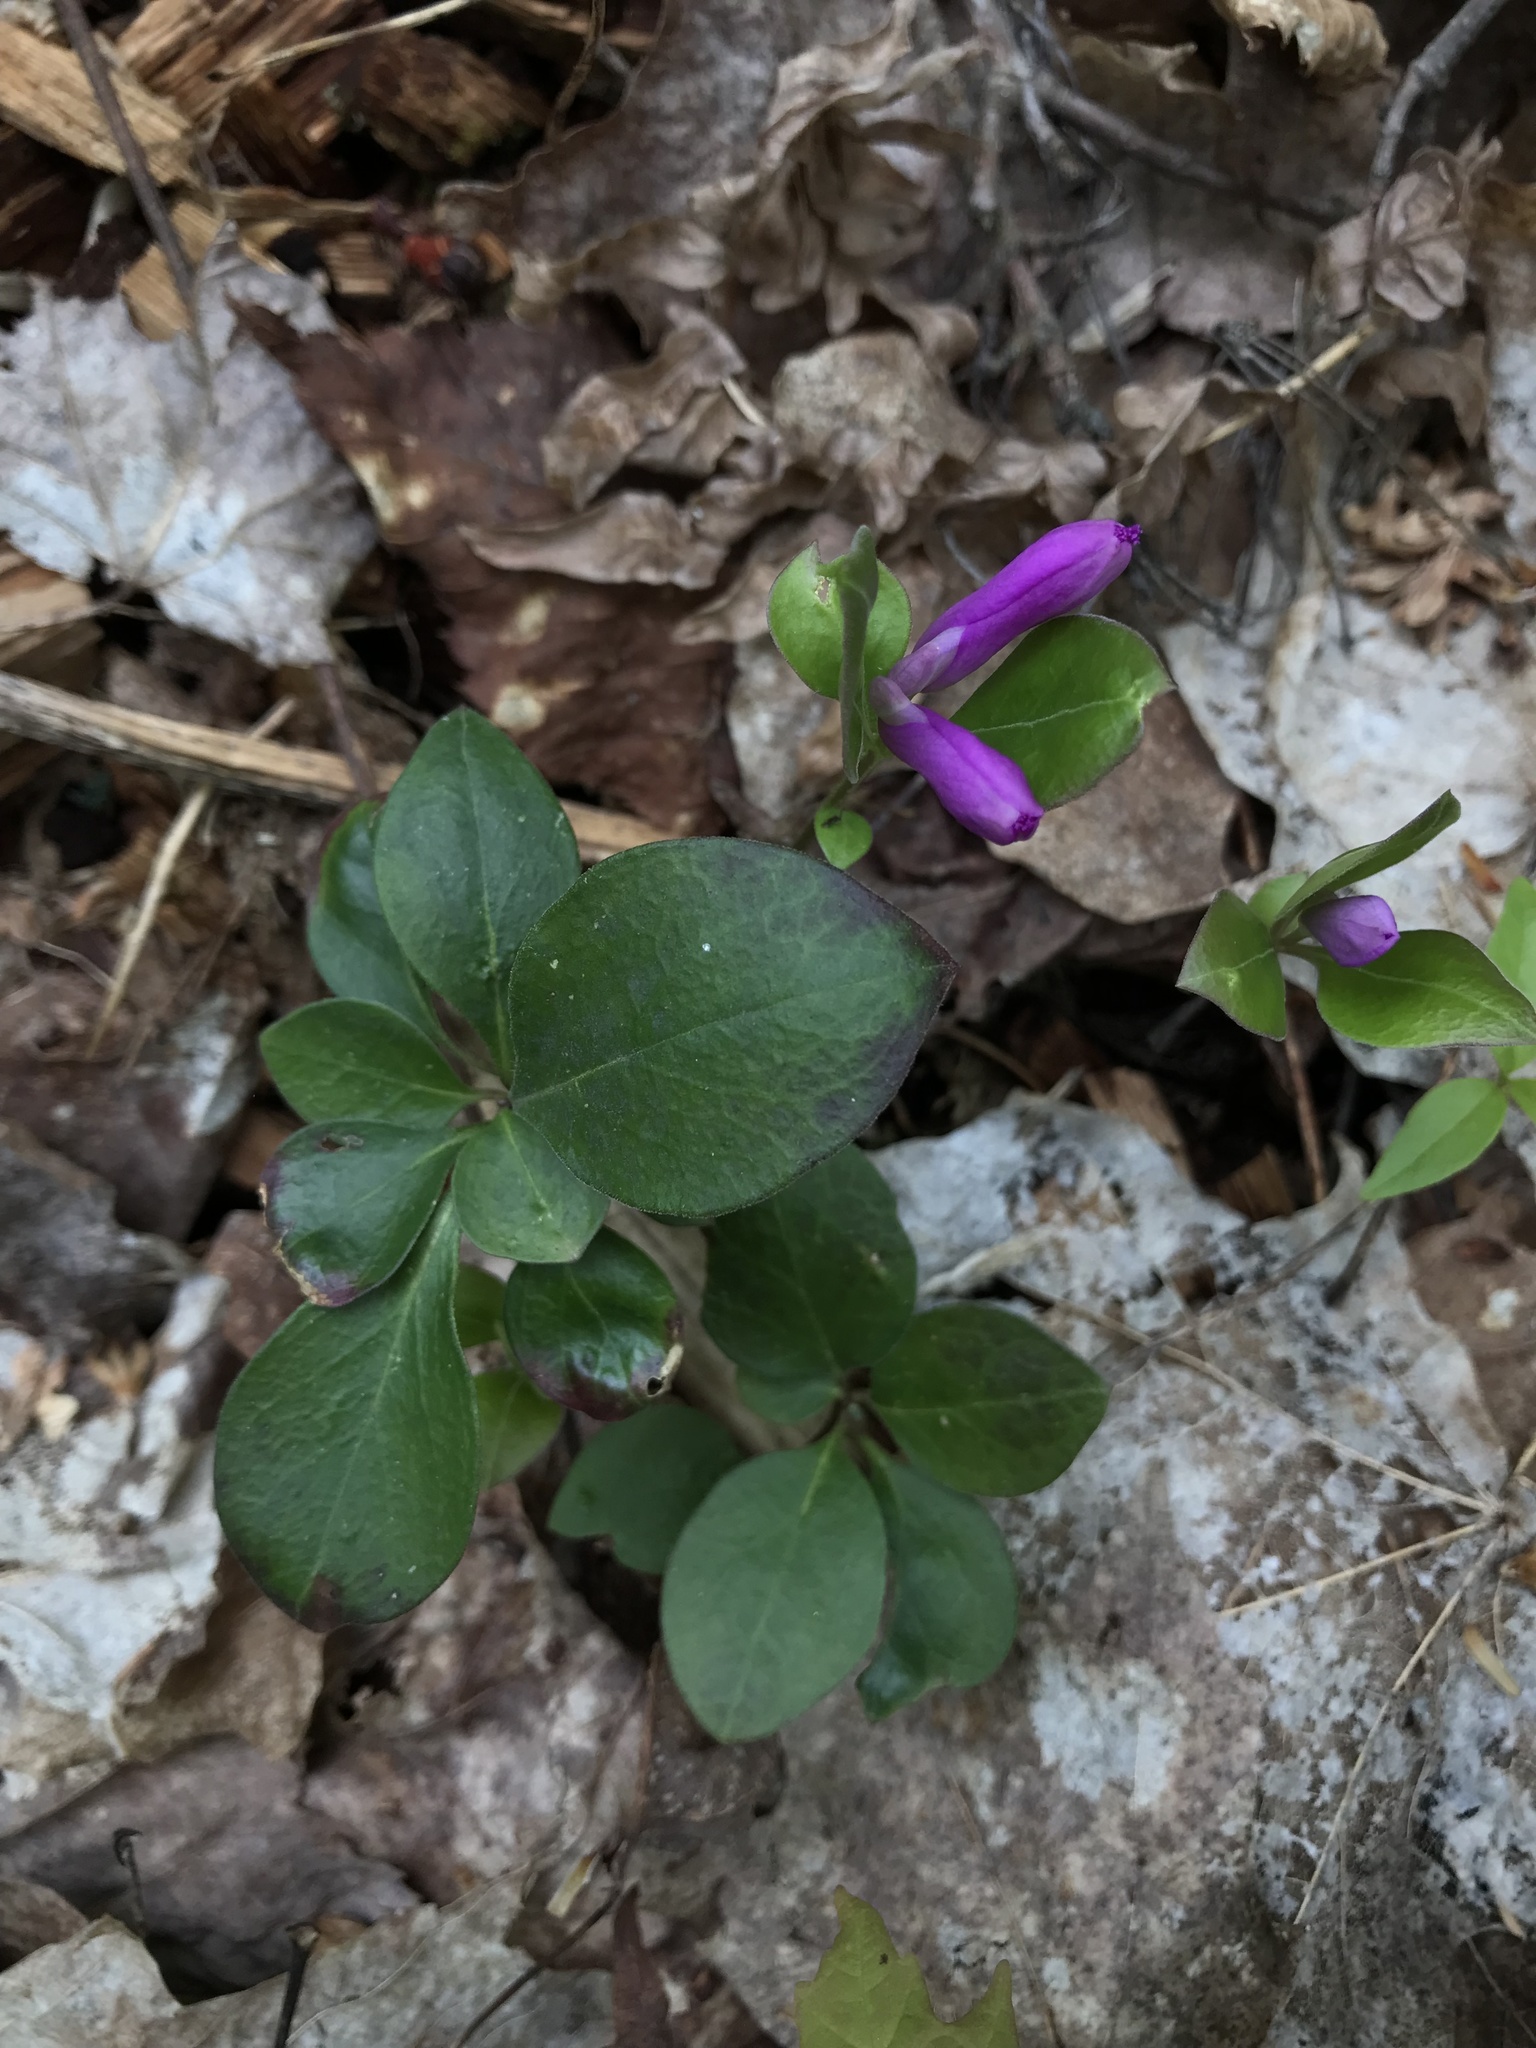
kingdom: Plantae
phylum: Tracheophyta
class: Magnoliopsida
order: Fabales
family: Polygalaceae
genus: Polygaloides
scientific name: Polygaloides paucifolia
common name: Bird-on-the-wing
